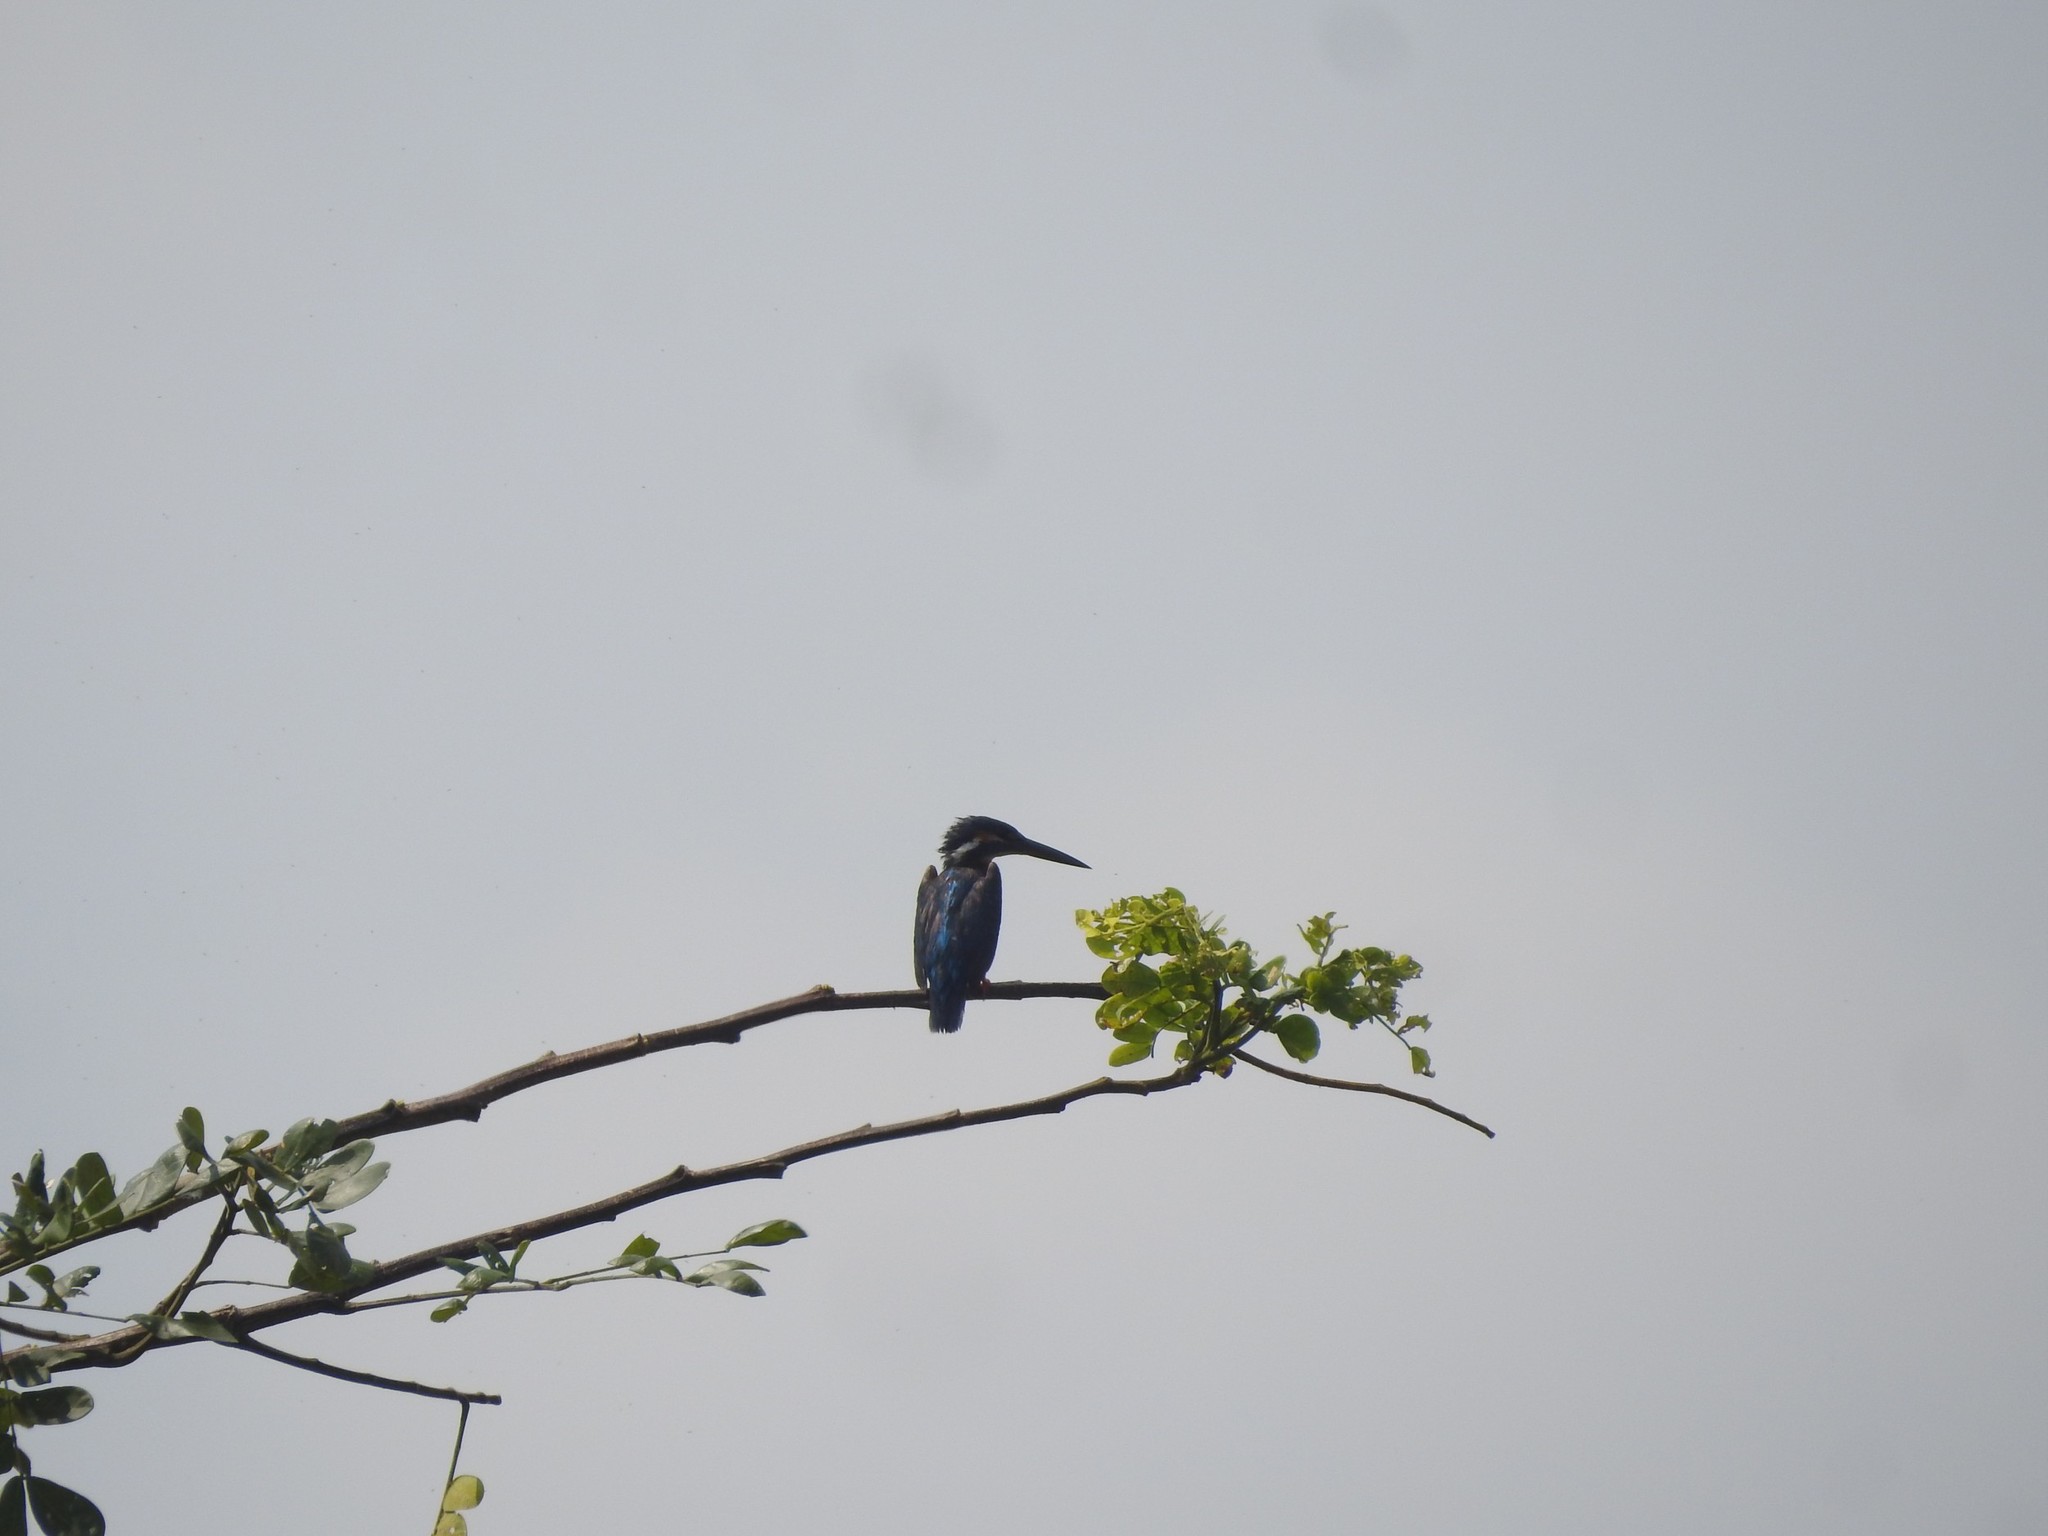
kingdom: Animalia
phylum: Chordata
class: Aves
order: Coraciiformes
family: Alcedinidae
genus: Alcedo
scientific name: Alcedo atthis
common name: Common kingfisher
